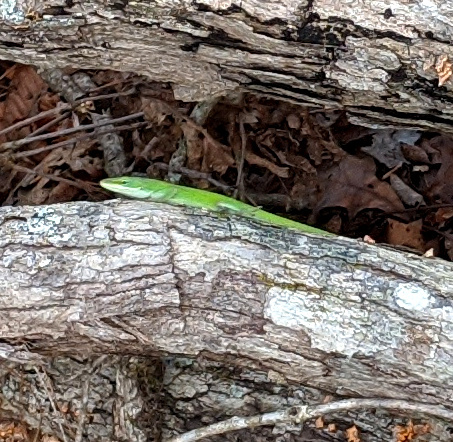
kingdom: Animalia
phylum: Chordata
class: Squamata
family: Dactyloidae
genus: Anolis
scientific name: Anolis carolinensis
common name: Green anole
